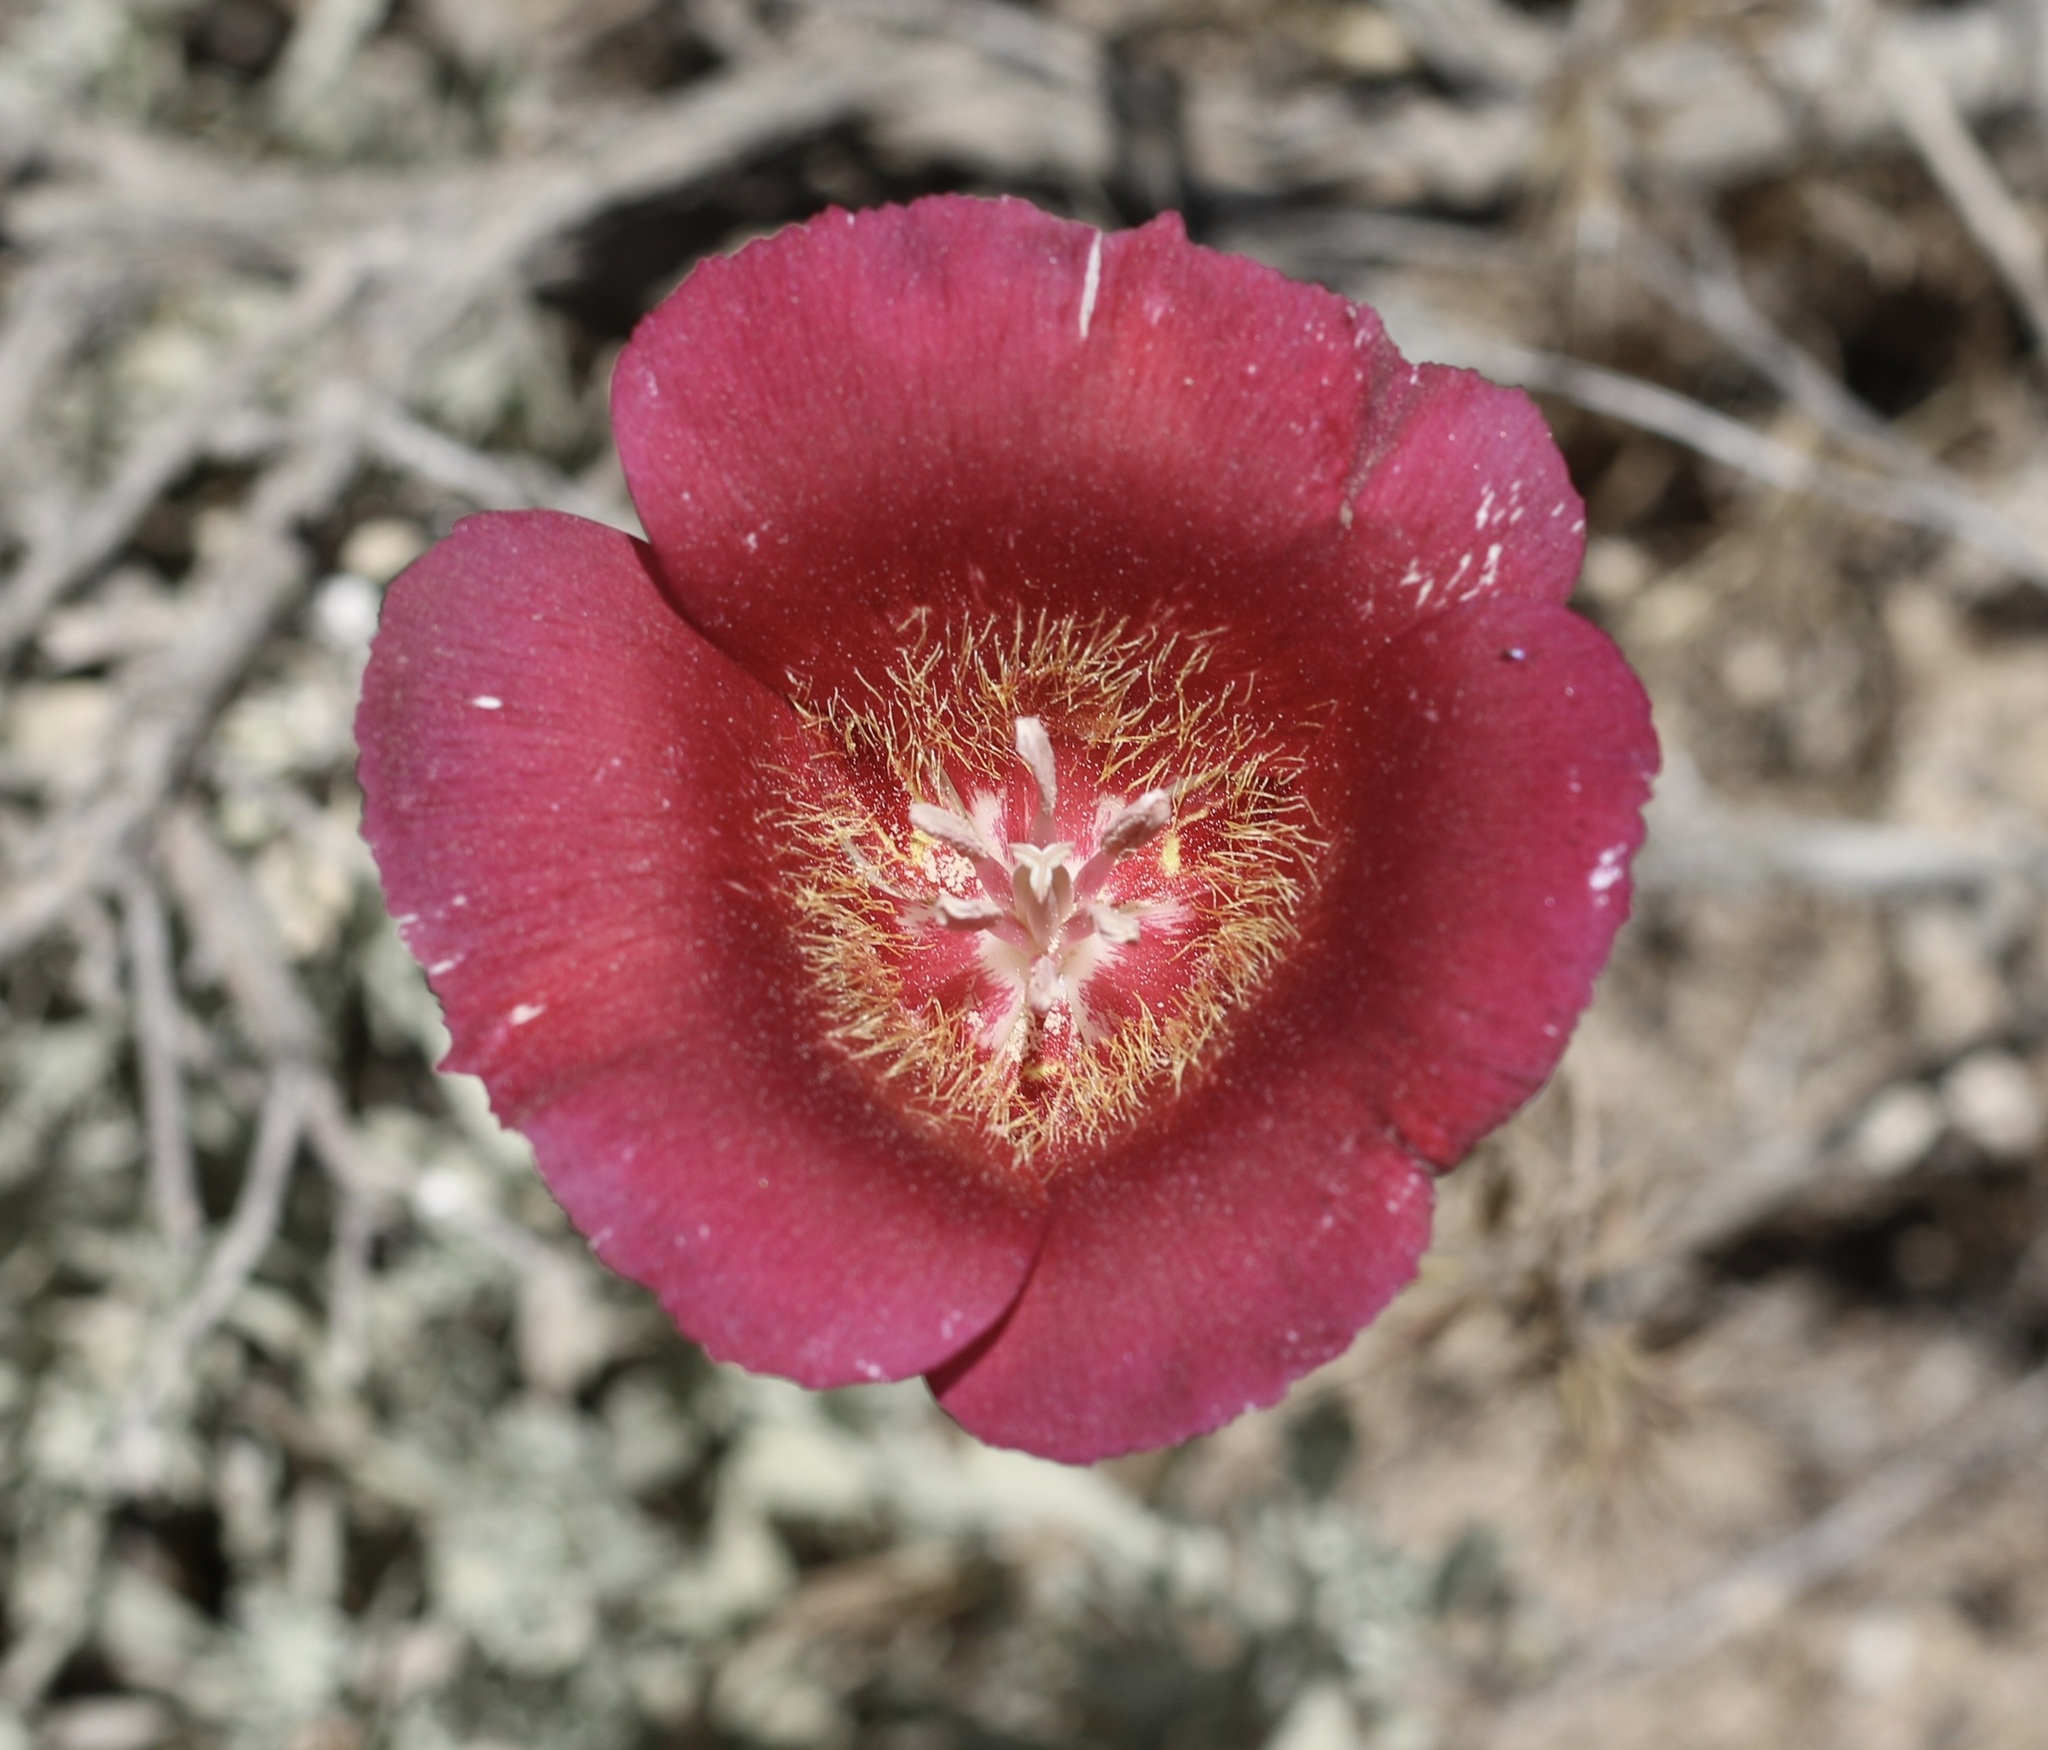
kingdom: Plantae
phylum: Tracheophyta
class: Liliopsida
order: Liliales
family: Liliaceae
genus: Calochortus
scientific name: Calochortus venustus
